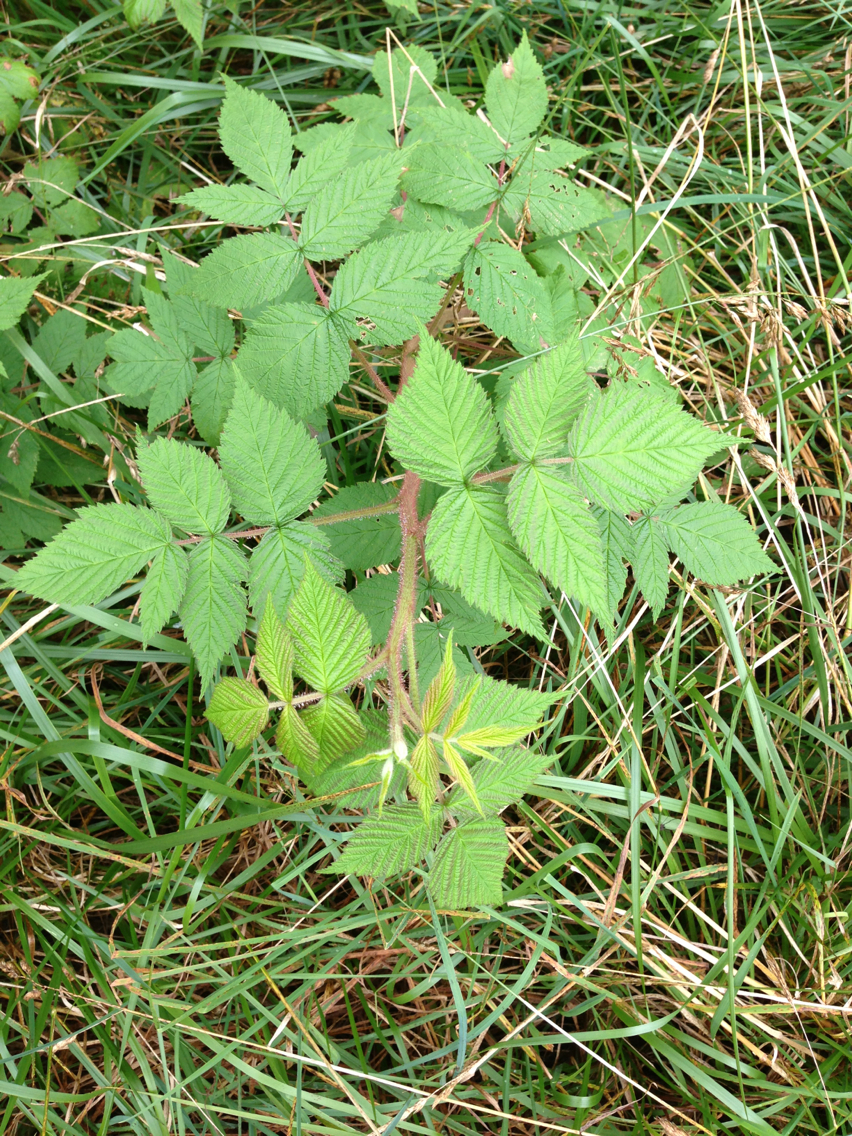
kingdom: Plantae
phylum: Tracheophyta
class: Magnoliopsida
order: Rosales
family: Rosaceae
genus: Rubus
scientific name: Rubus idaeus
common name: Raspberry
